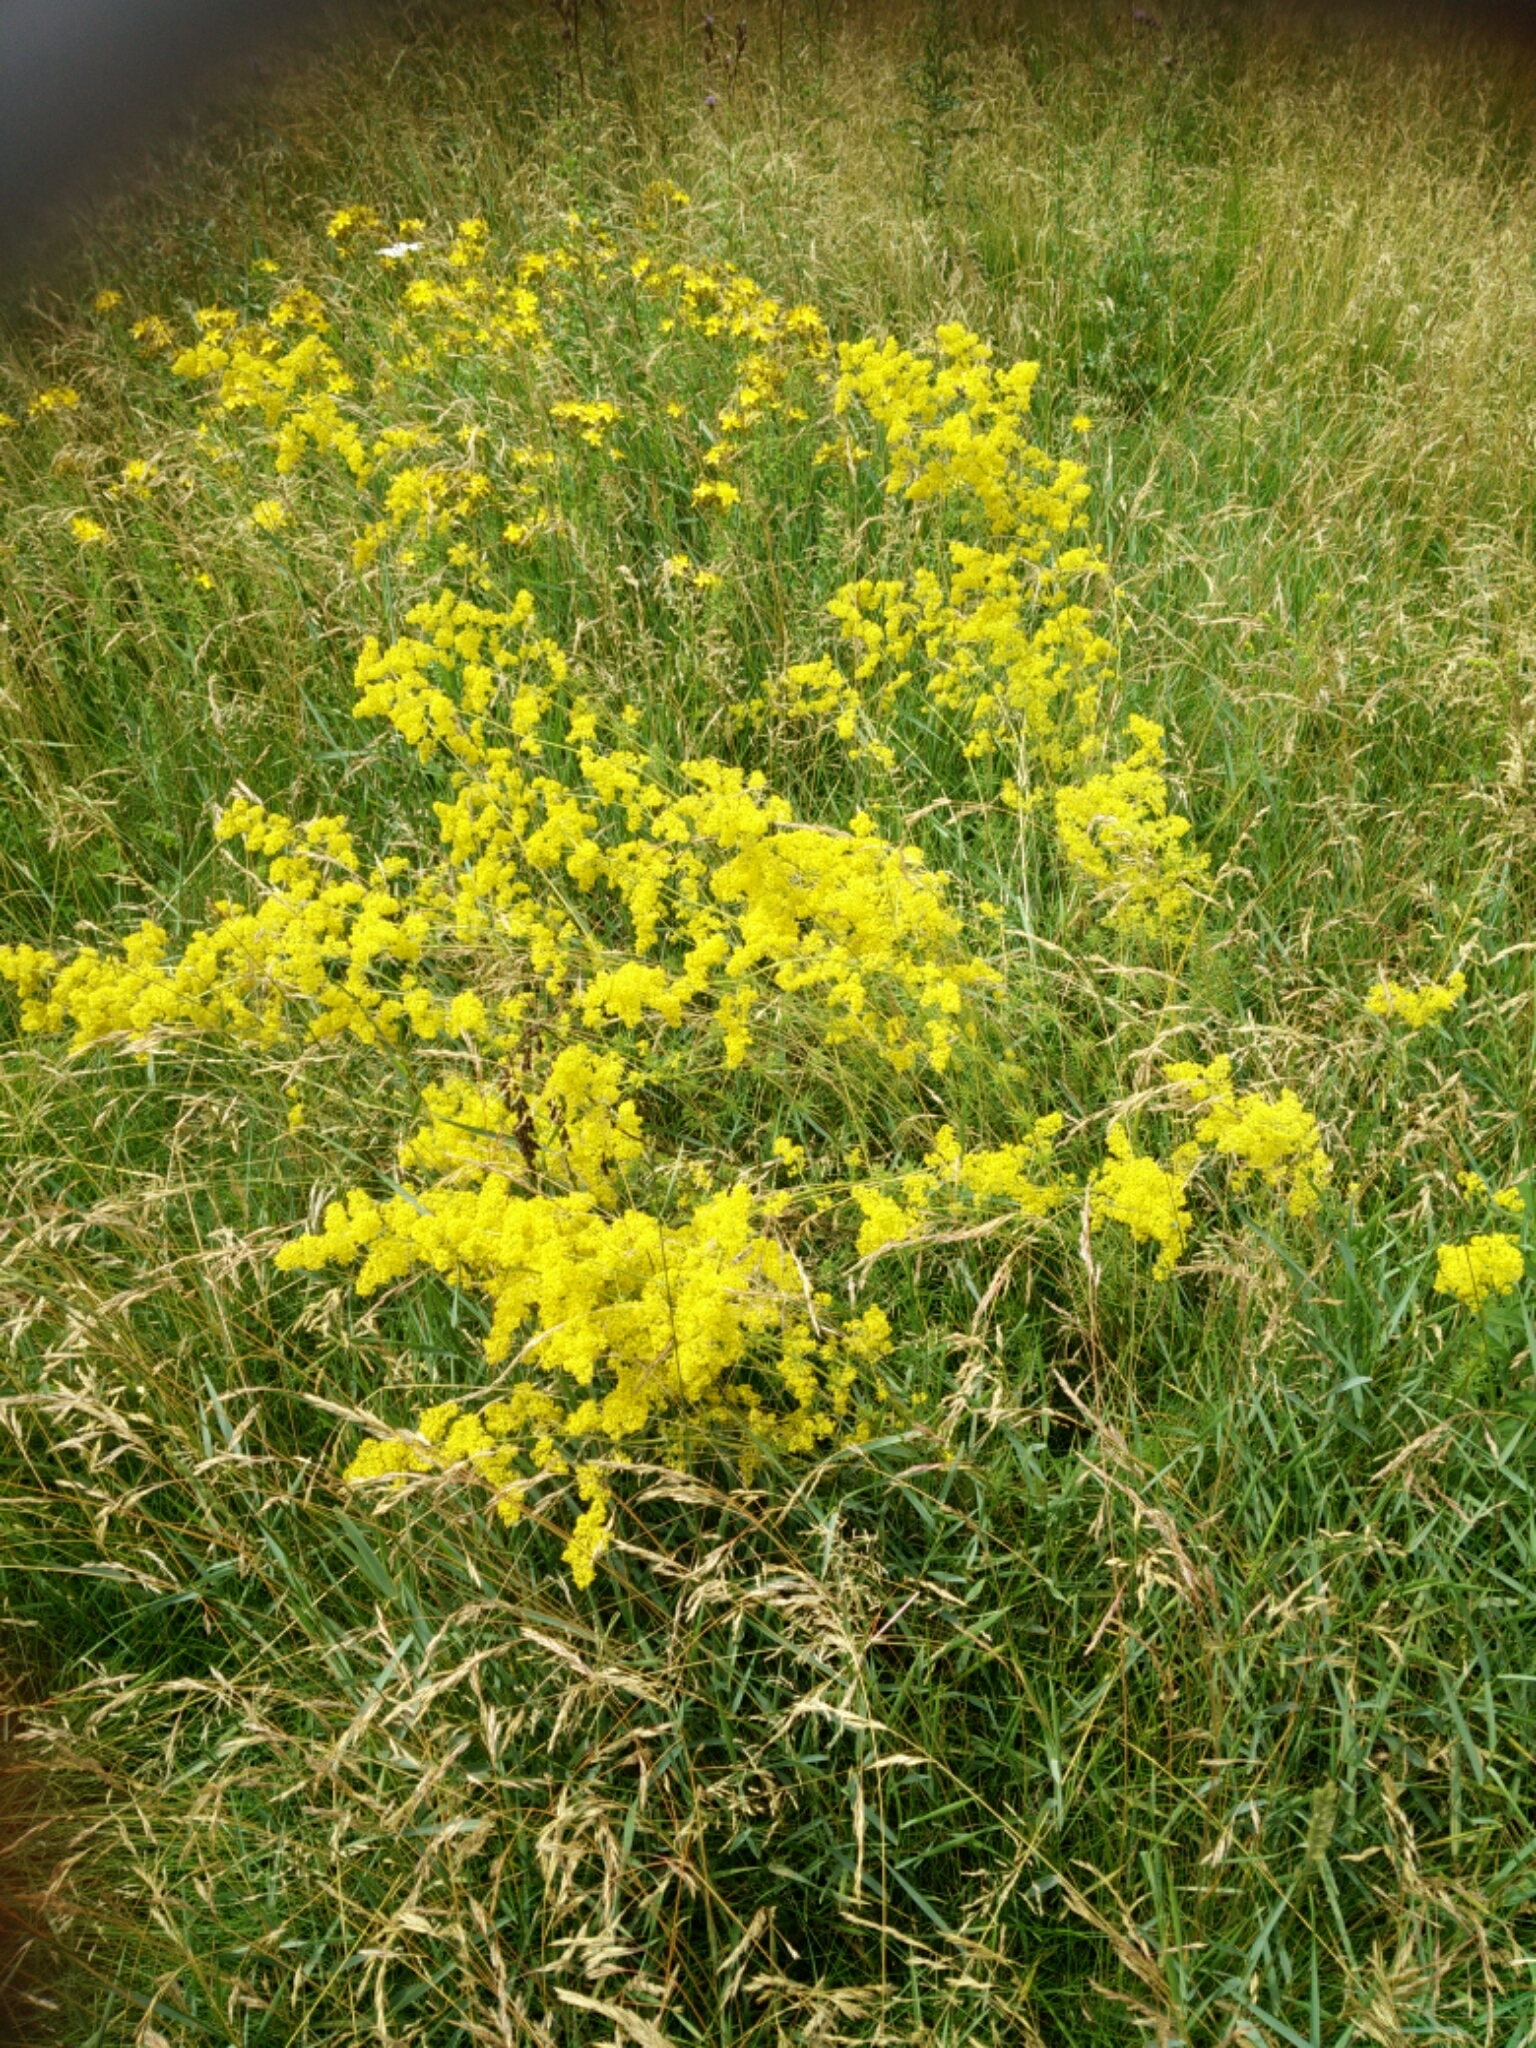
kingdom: Plantae
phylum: Tracheophyta
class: Magnoliopsida
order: Gentianales
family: Rubiaceae
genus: Galium
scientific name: Galium verum
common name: Lady's bedstraw
